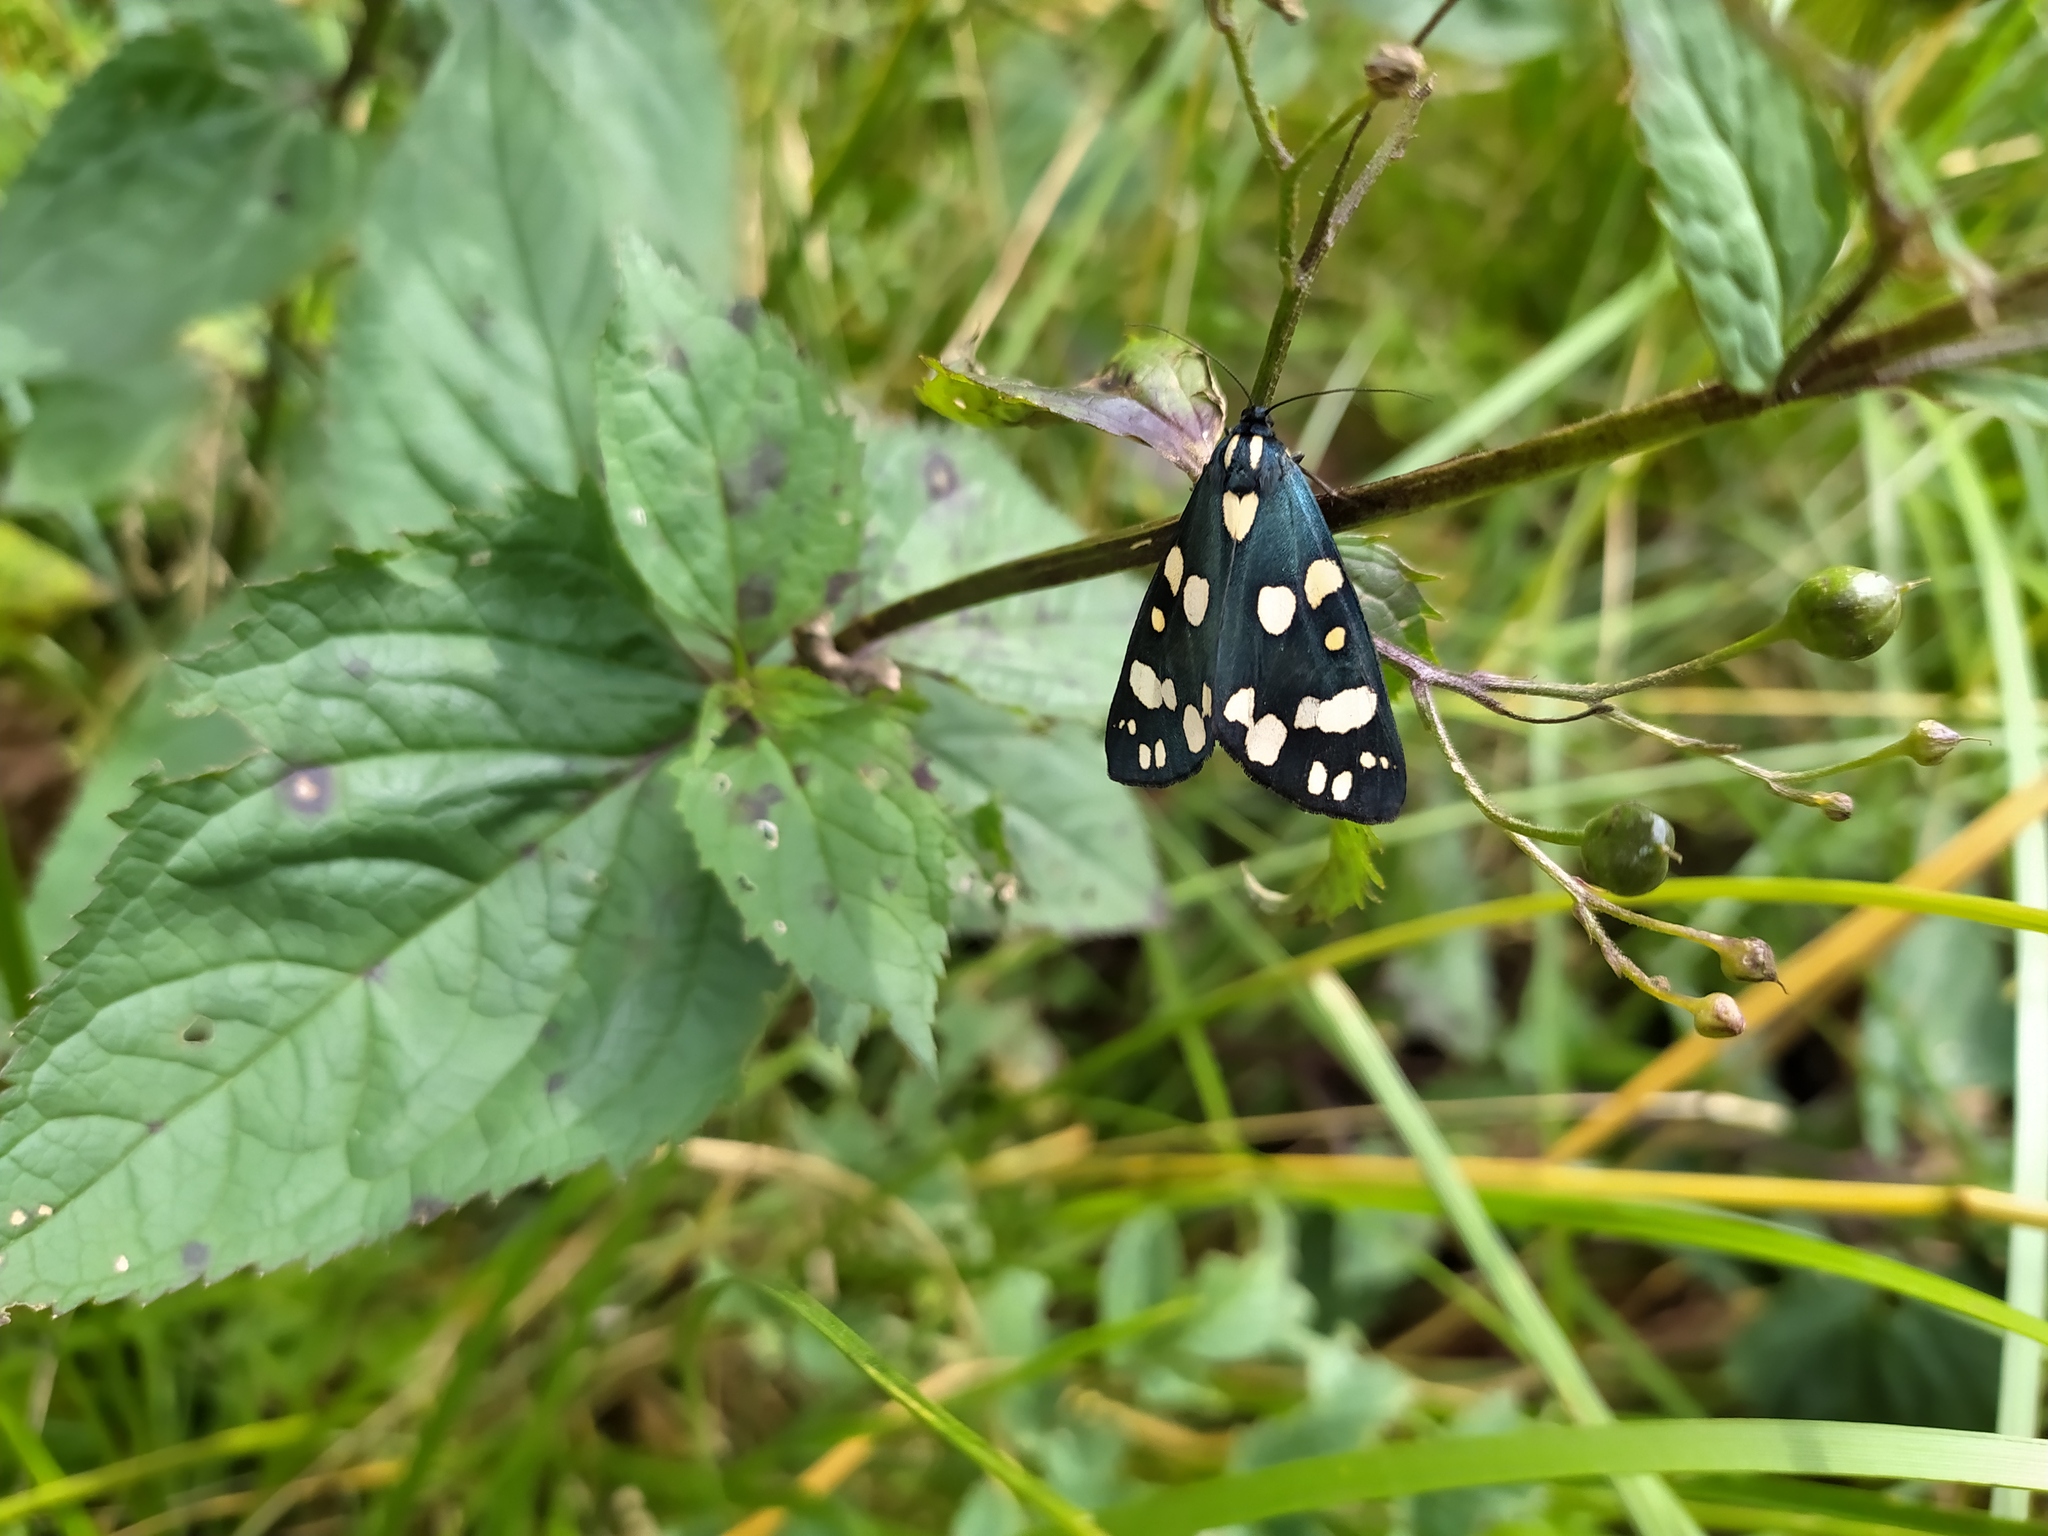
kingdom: Animalia
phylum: Arthropoda
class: Insecta
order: Lepidoptera
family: Erebidae
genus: Callimorpha
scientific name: Callimorpha dominula
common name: Scarlet tiger
